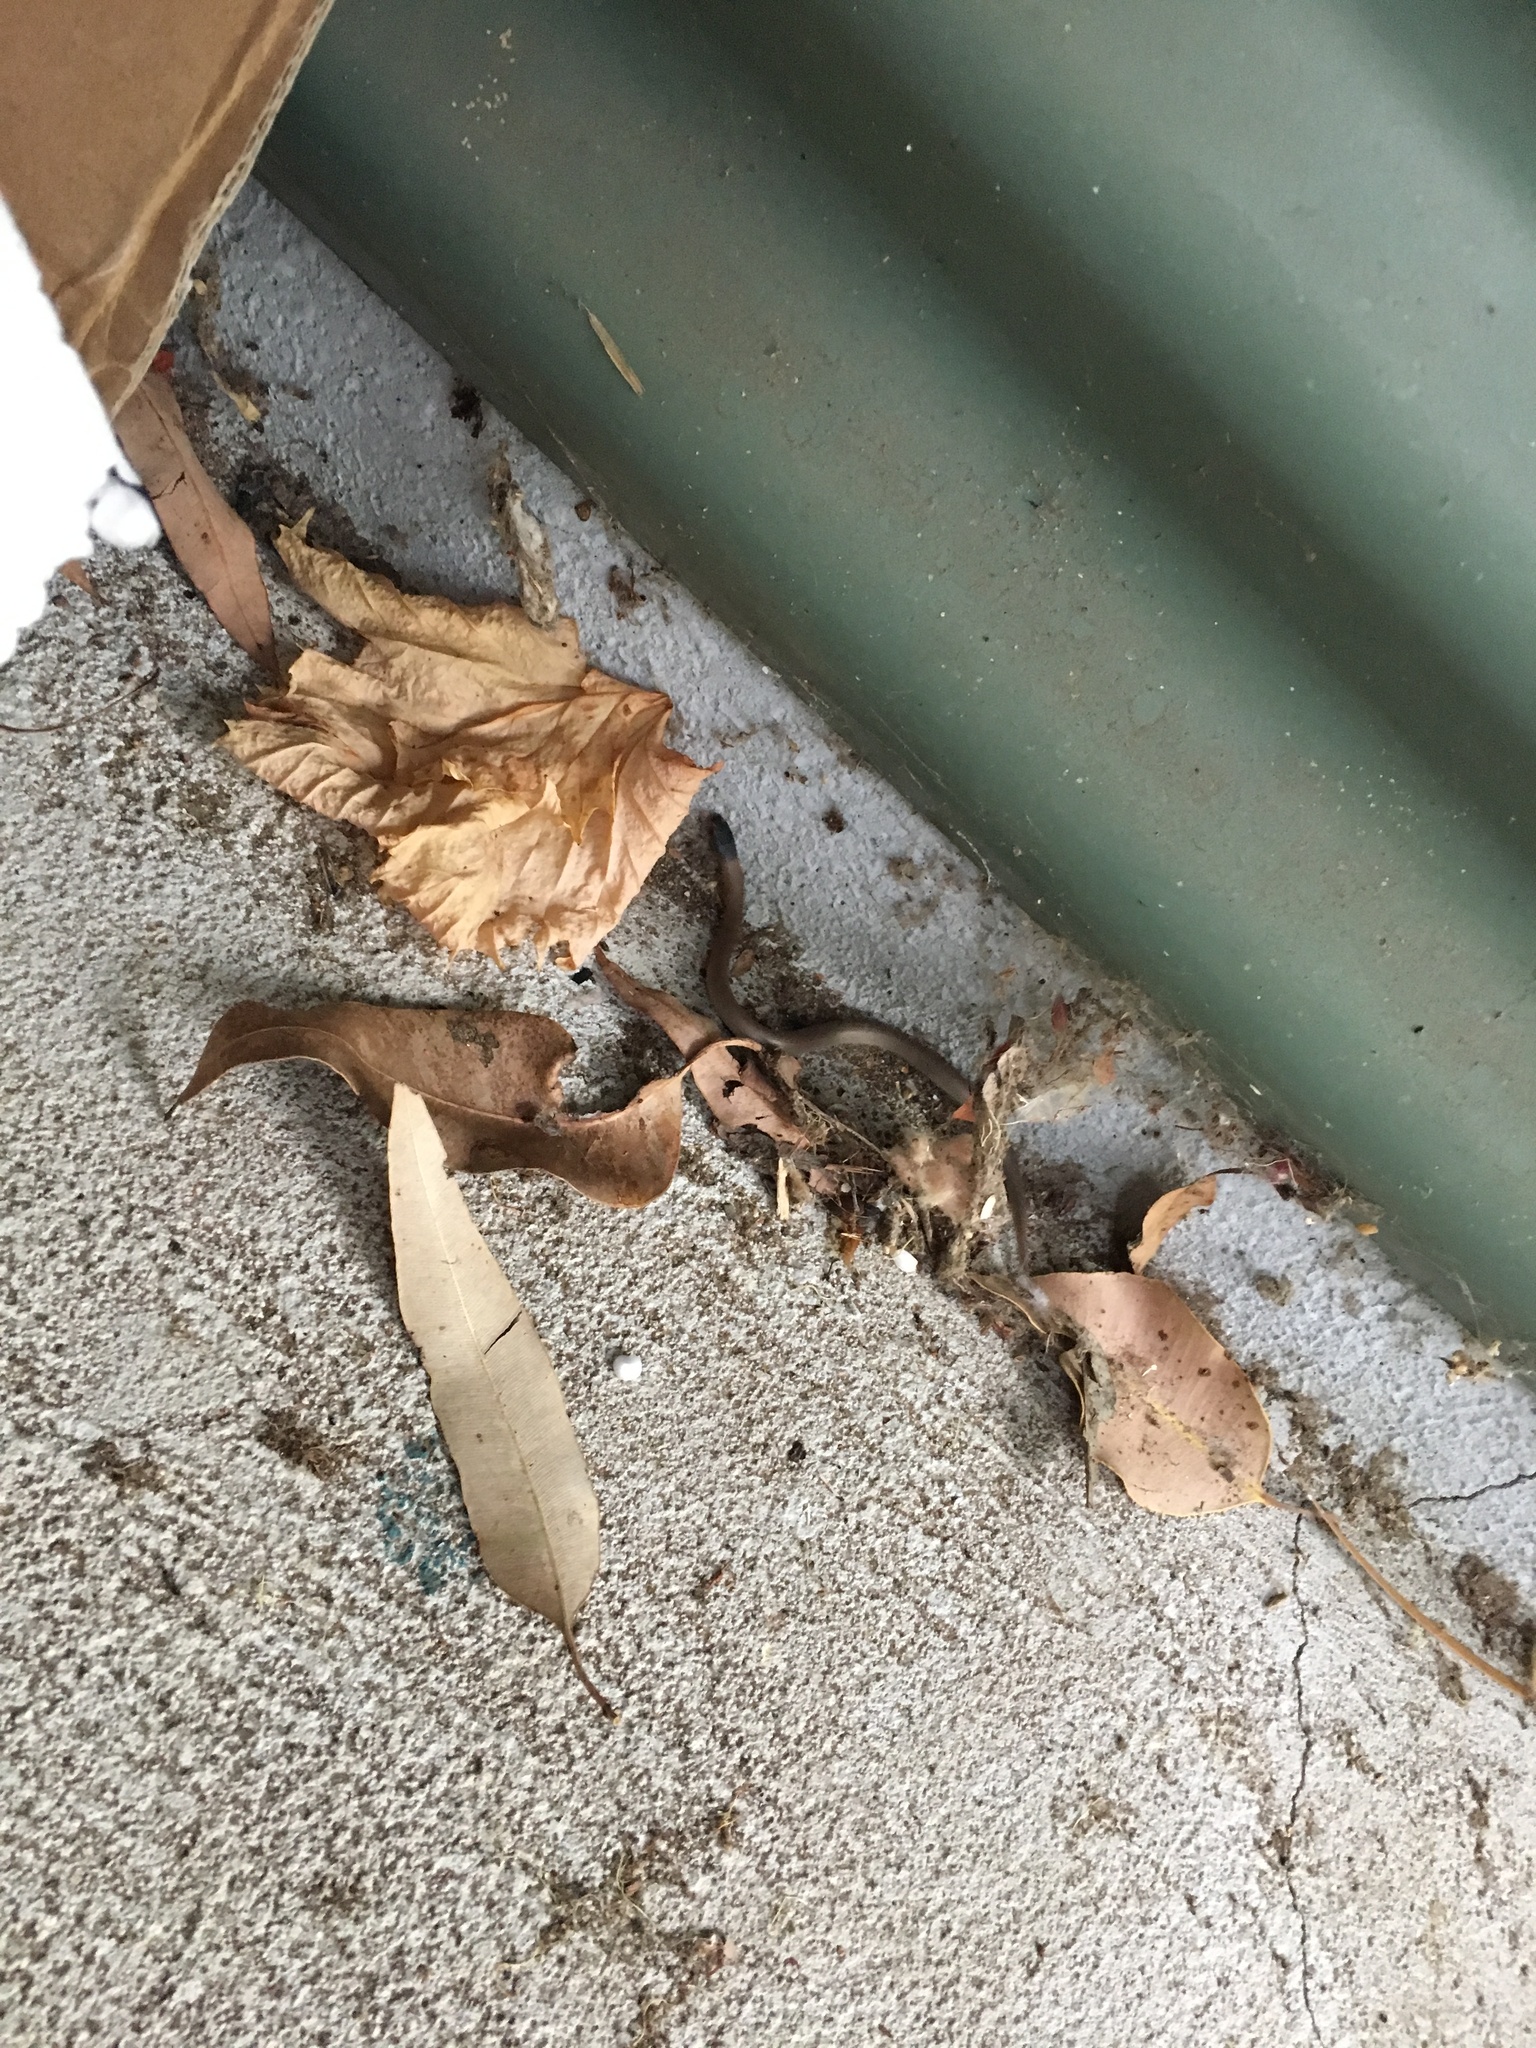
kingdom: Animalia
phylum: Chordata
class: Squamata
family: Elapidae
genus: Pseudonaja
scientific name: Pseudonaja affinis
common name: Dugite
